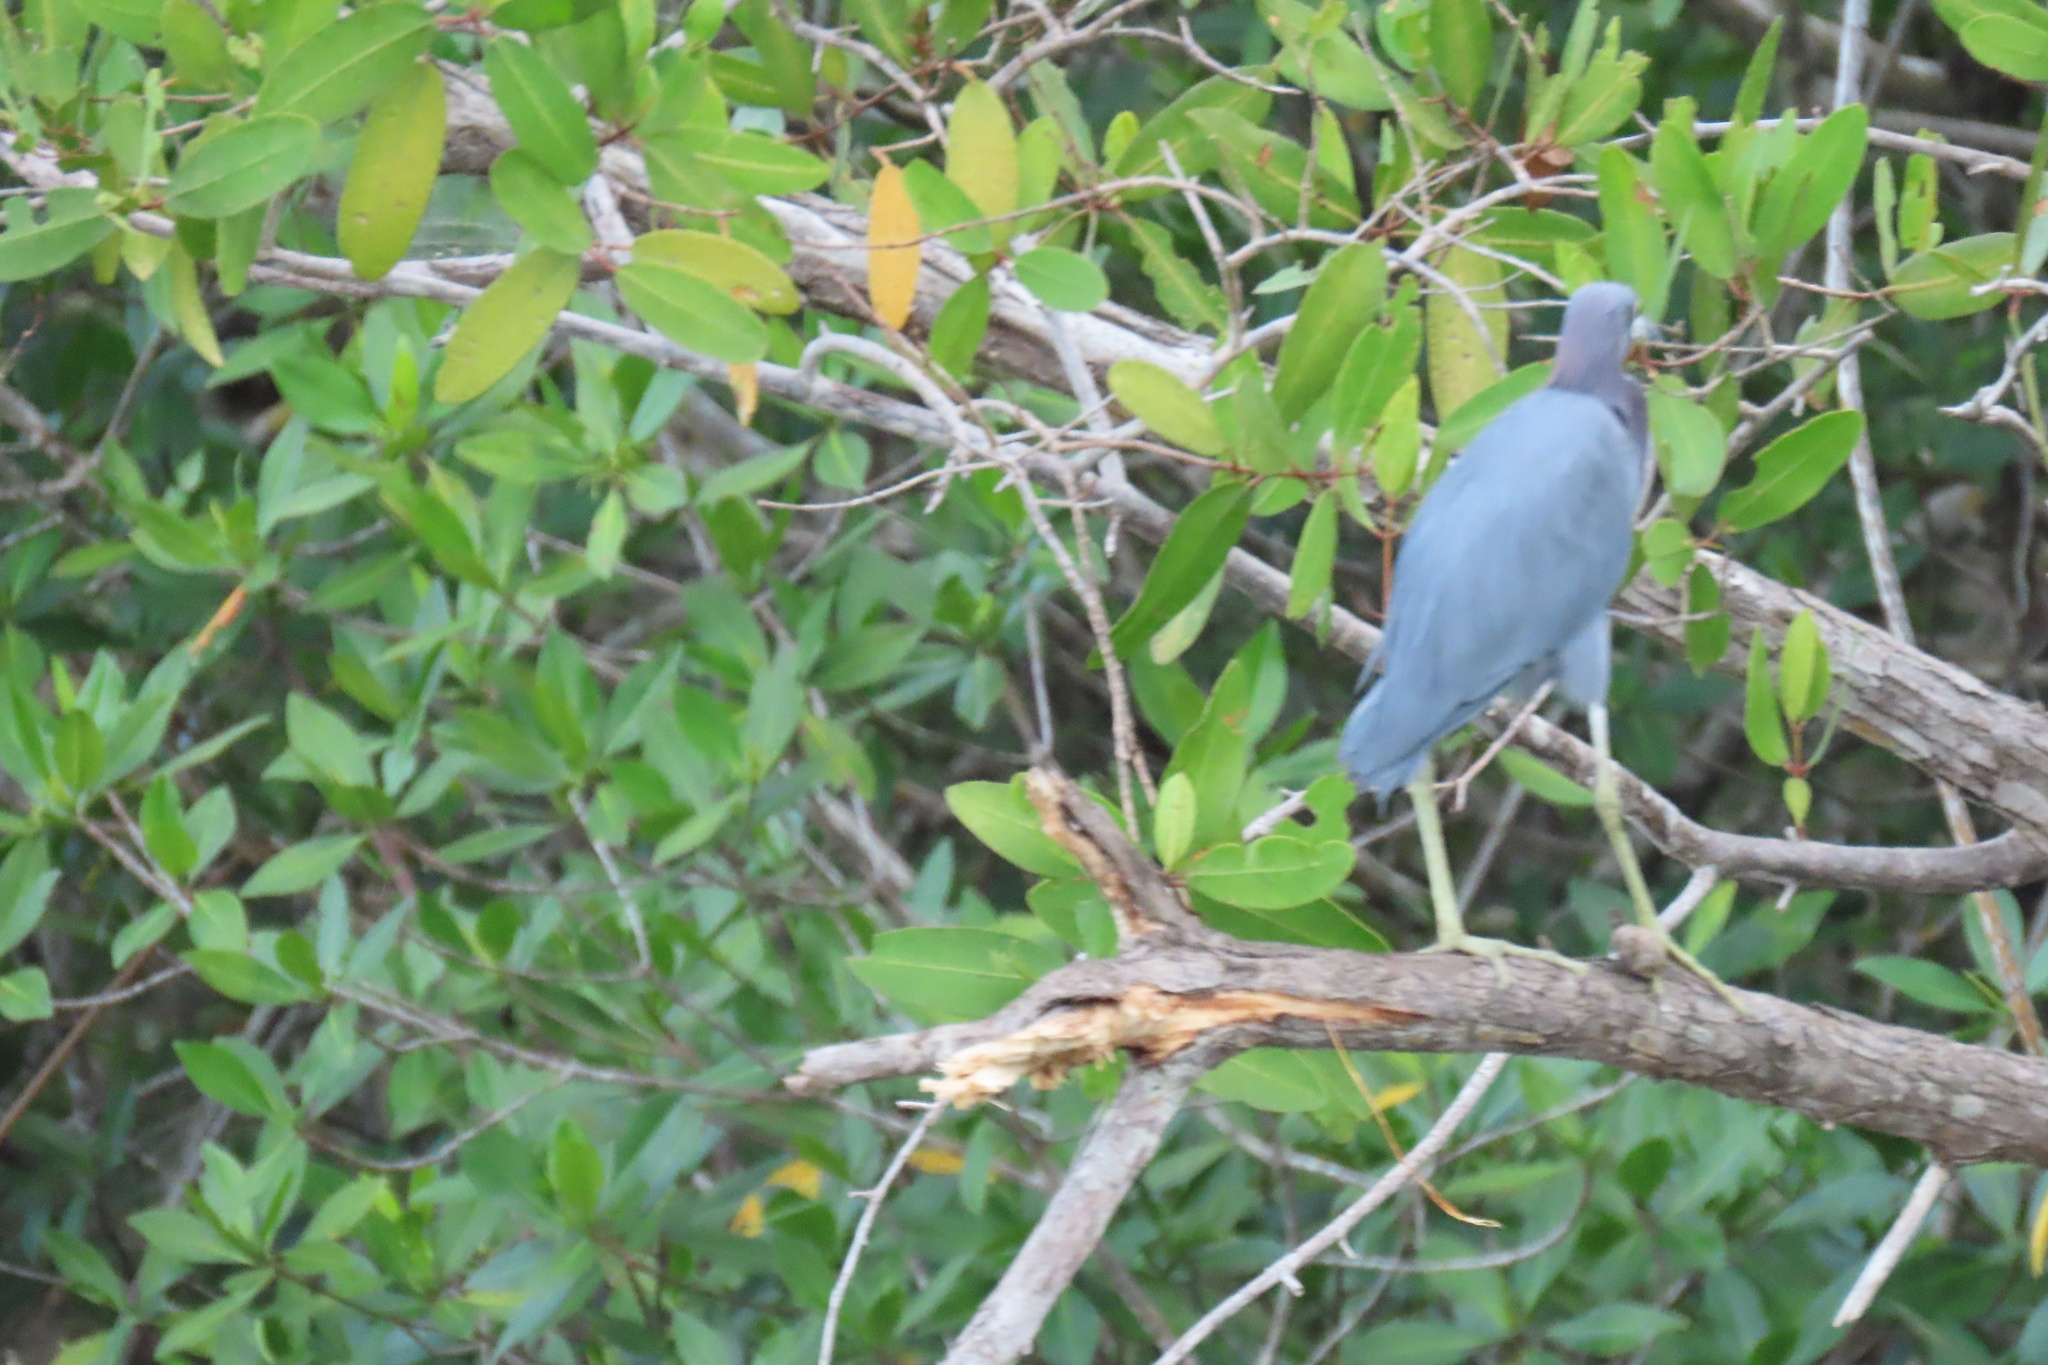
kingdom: Animalia
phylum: Chordata
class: Aves
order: Pelecaniformes
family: Ardeidae
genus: Egretta
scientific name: Egretta caerulea
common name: Little blue heron
